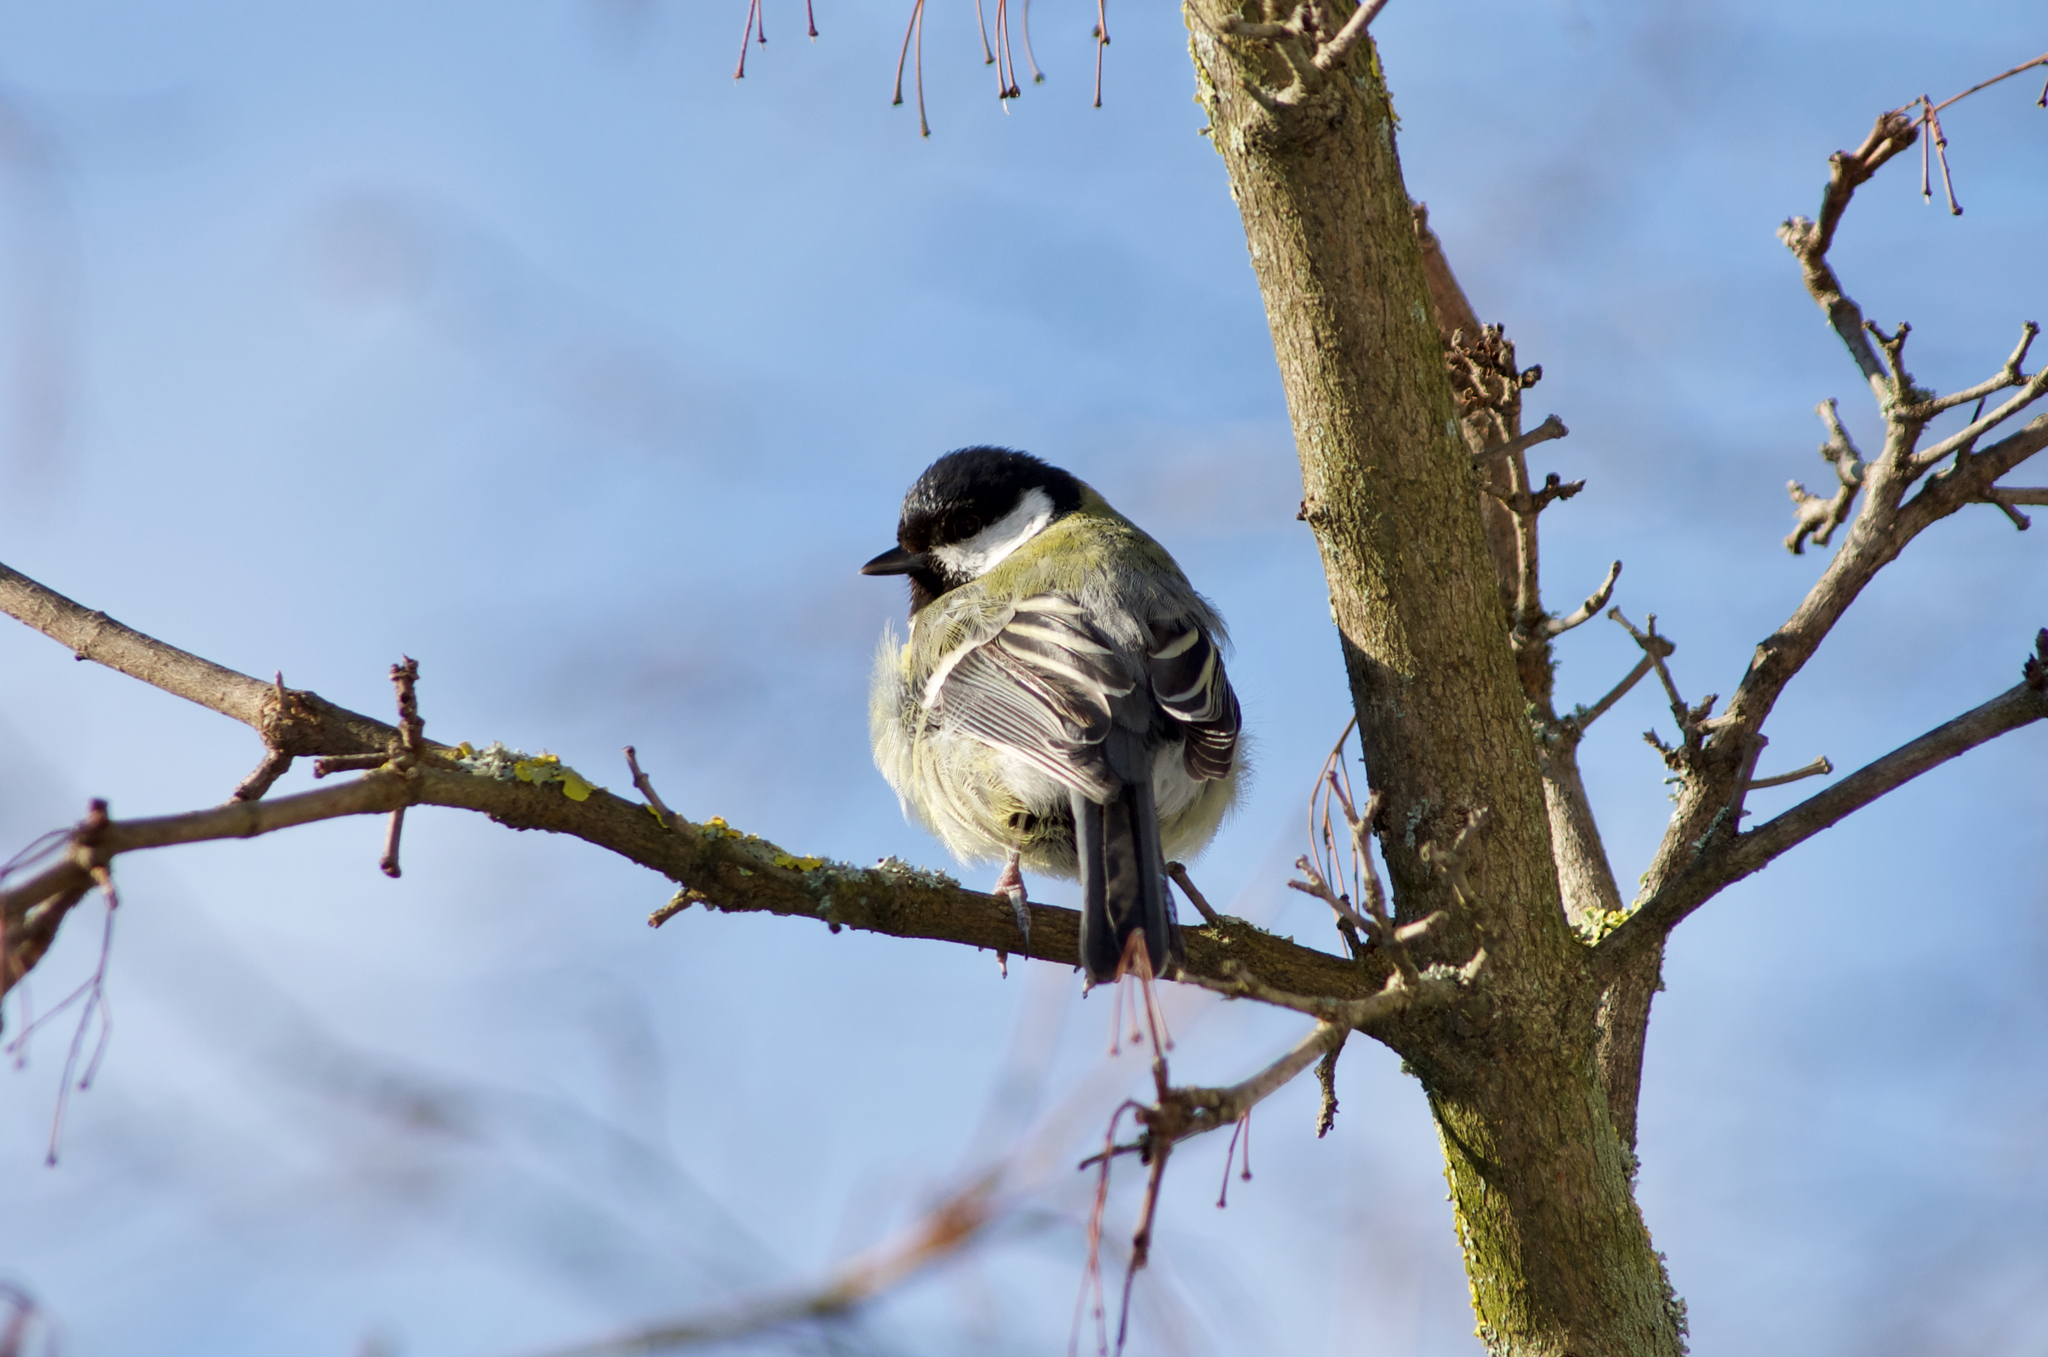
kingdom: Animalia
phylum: Chordata
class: Aves
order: Passeriformes
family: Paridae
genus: Parus
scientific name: Parus major
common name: Great tit
